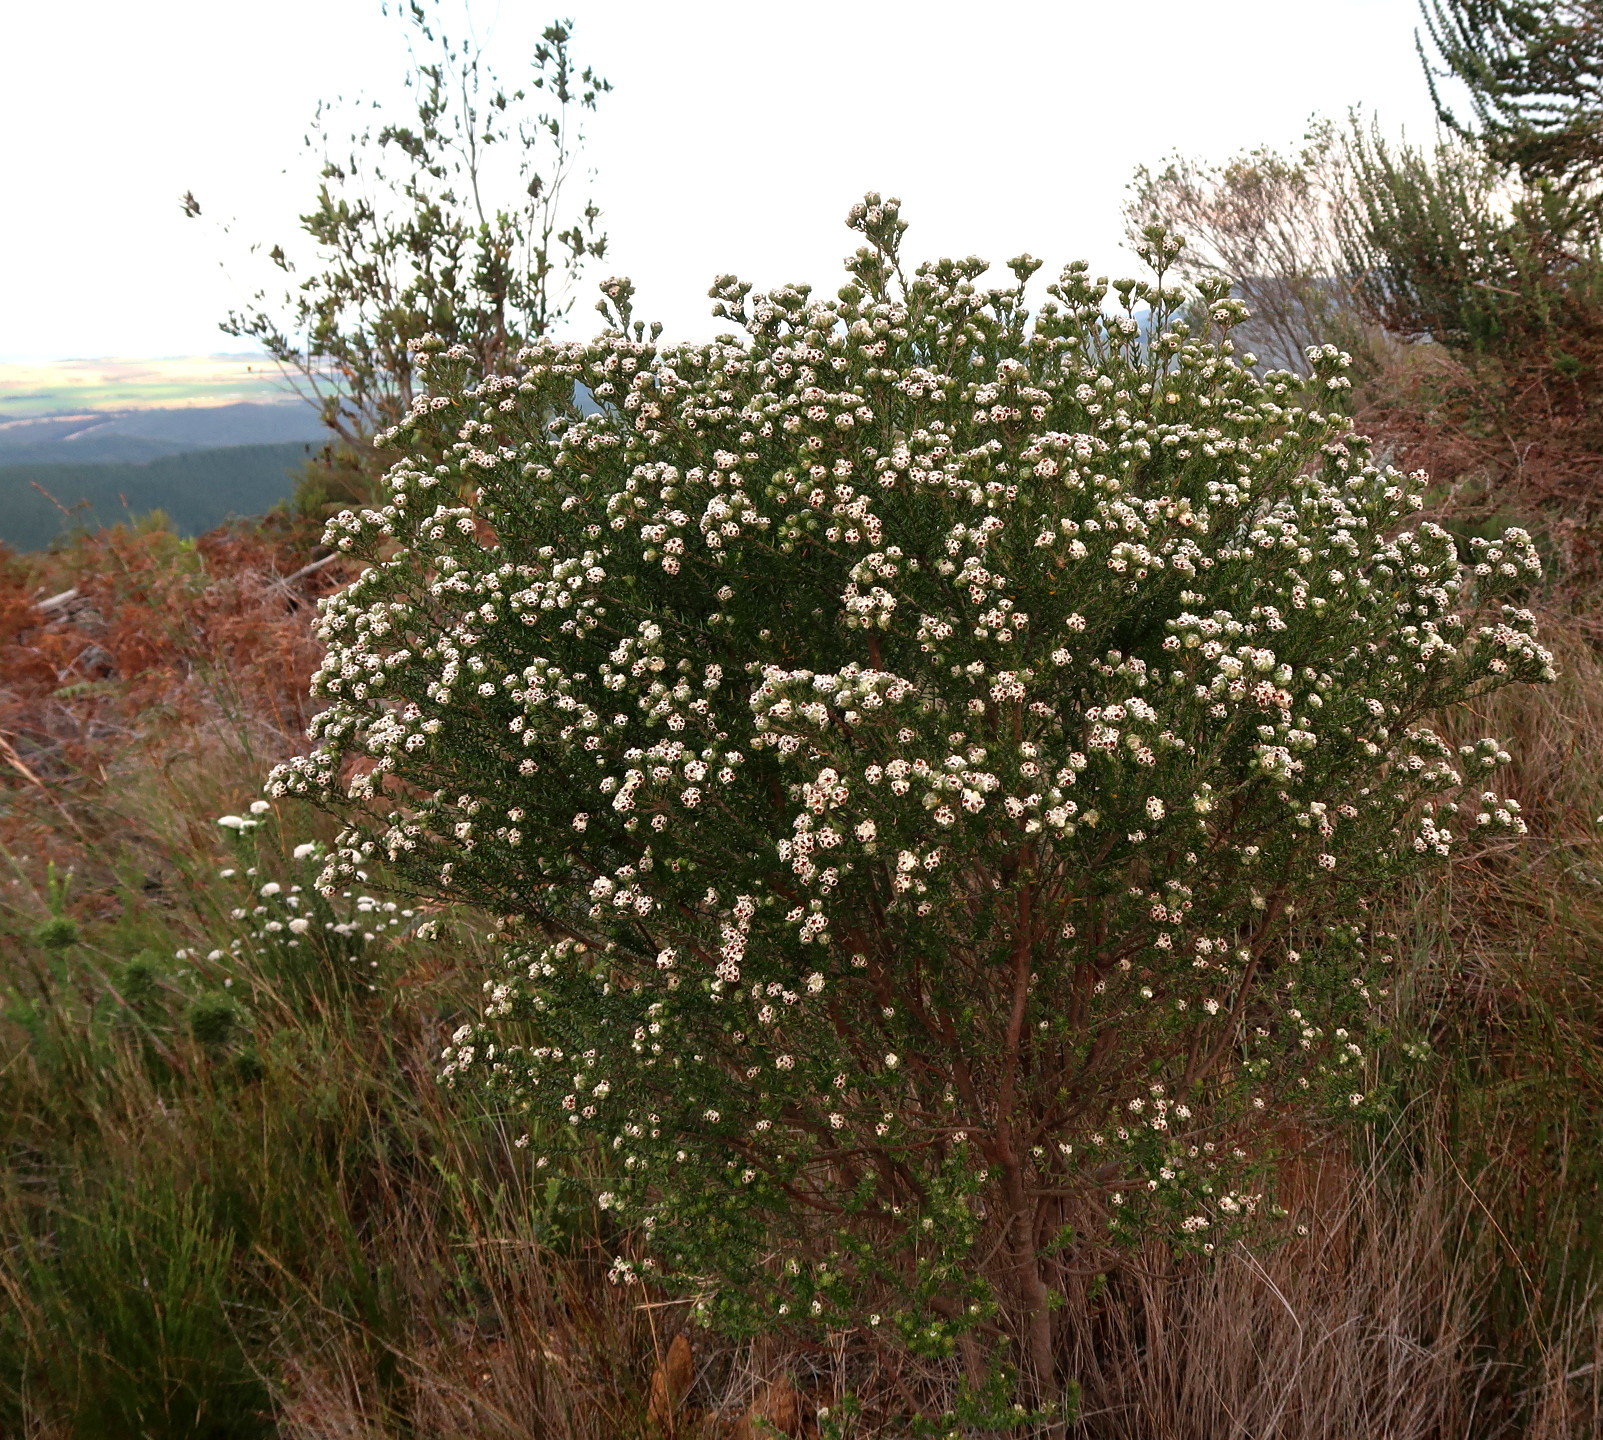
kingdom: Plantae
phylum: Tracheophyta
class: Magnoliopsida
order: Rosales
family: Rhamnaceae
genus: Phylica
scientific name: Phylica purpurea
